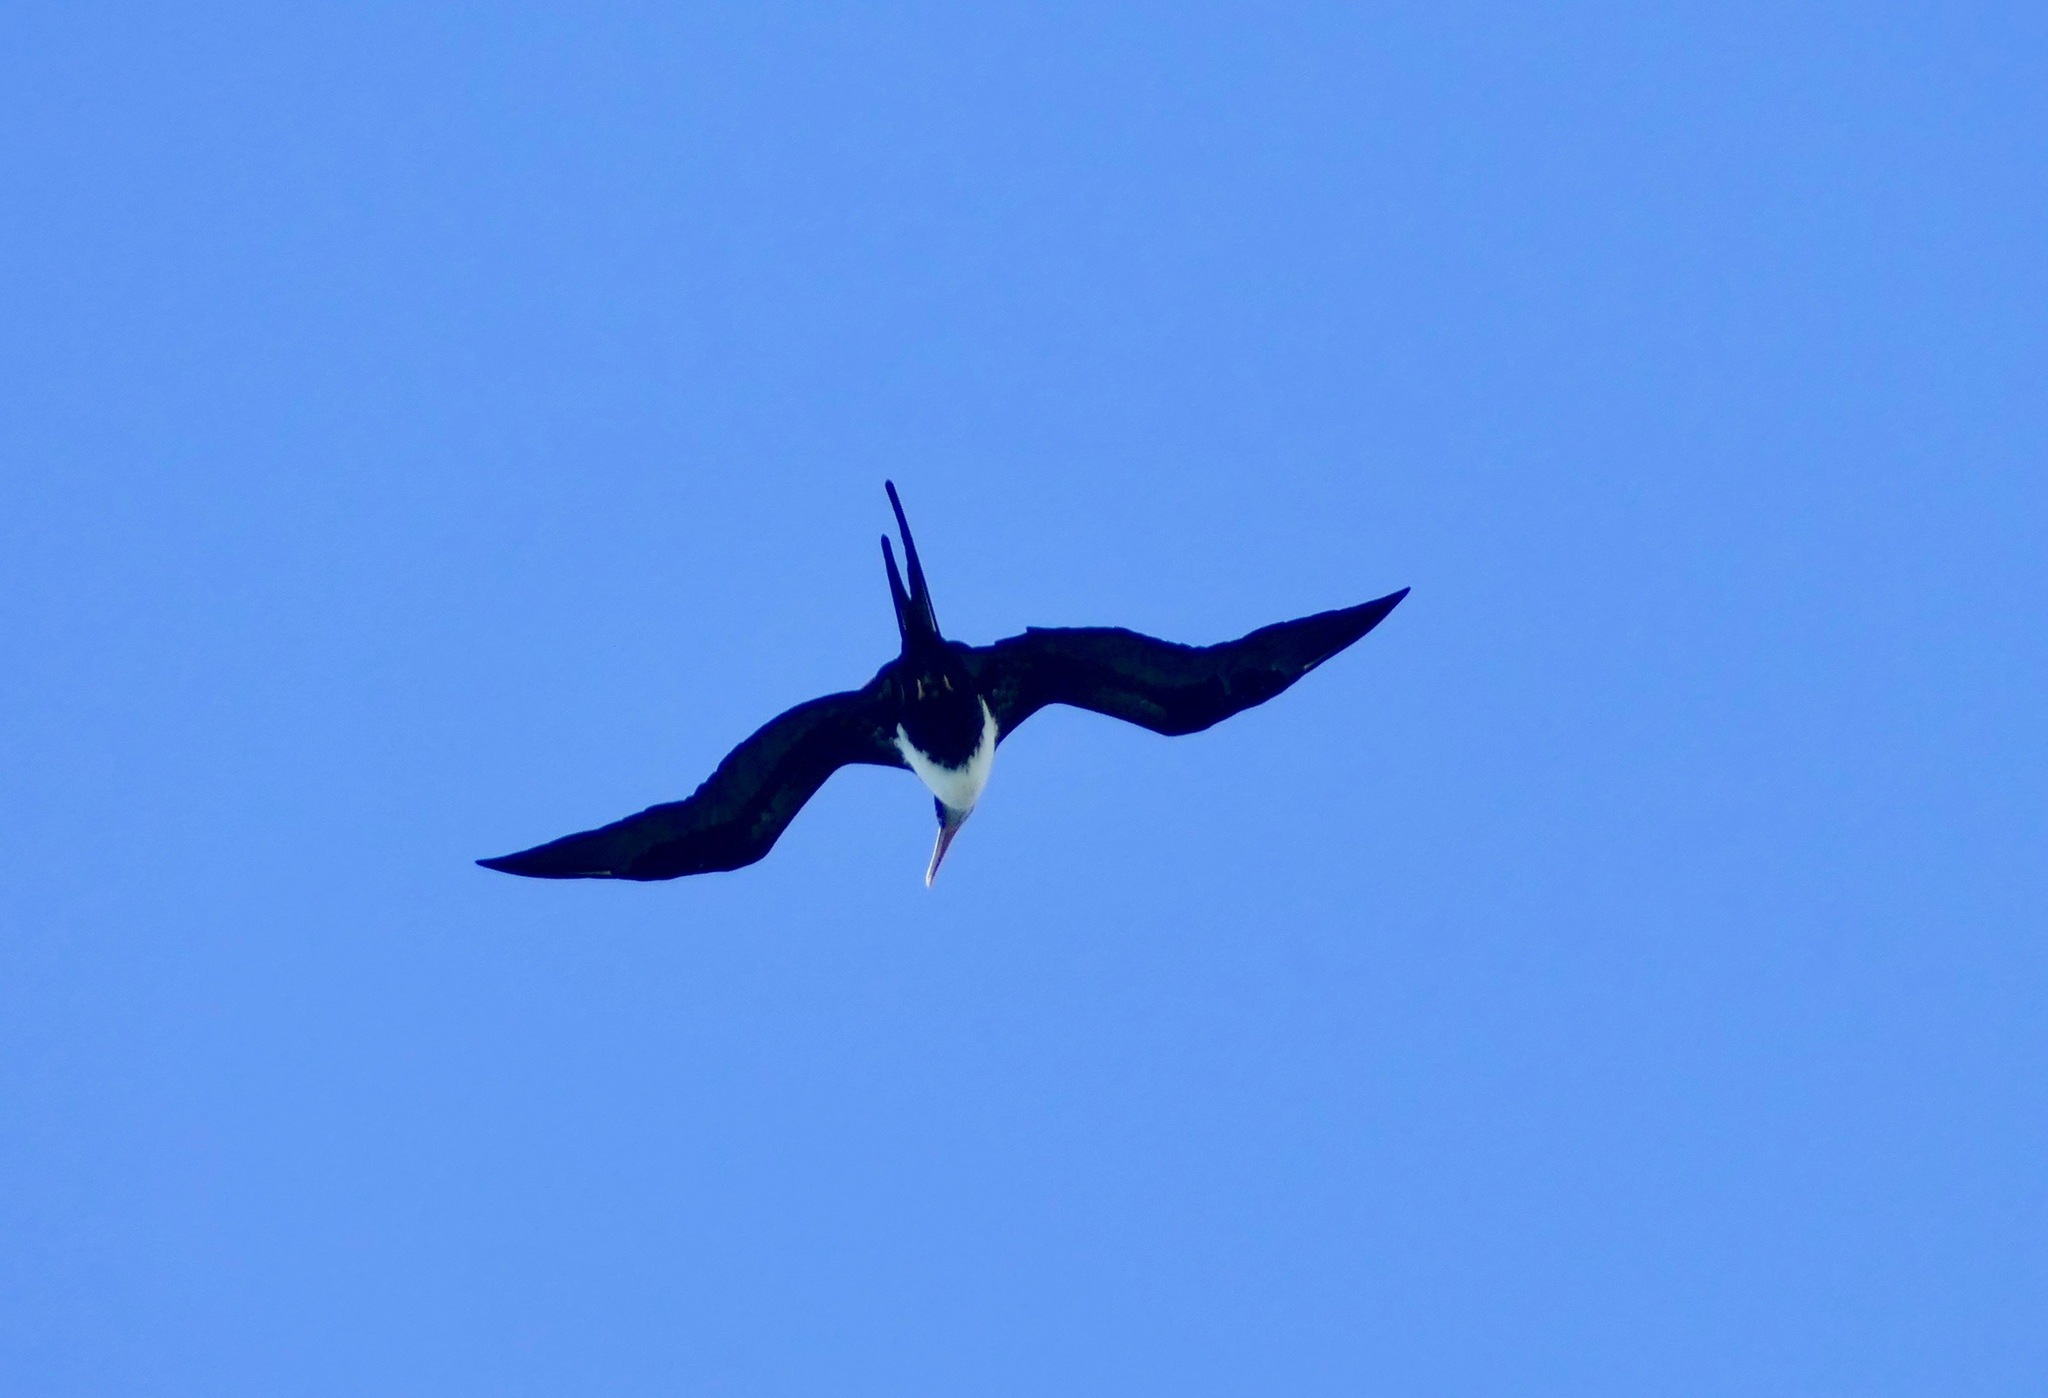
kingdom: Animalia
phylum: Chordata
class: Aves
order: Suliformes
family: Fregatidae
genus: Fregata
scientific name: Fregata minor
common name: Great frigatebird
